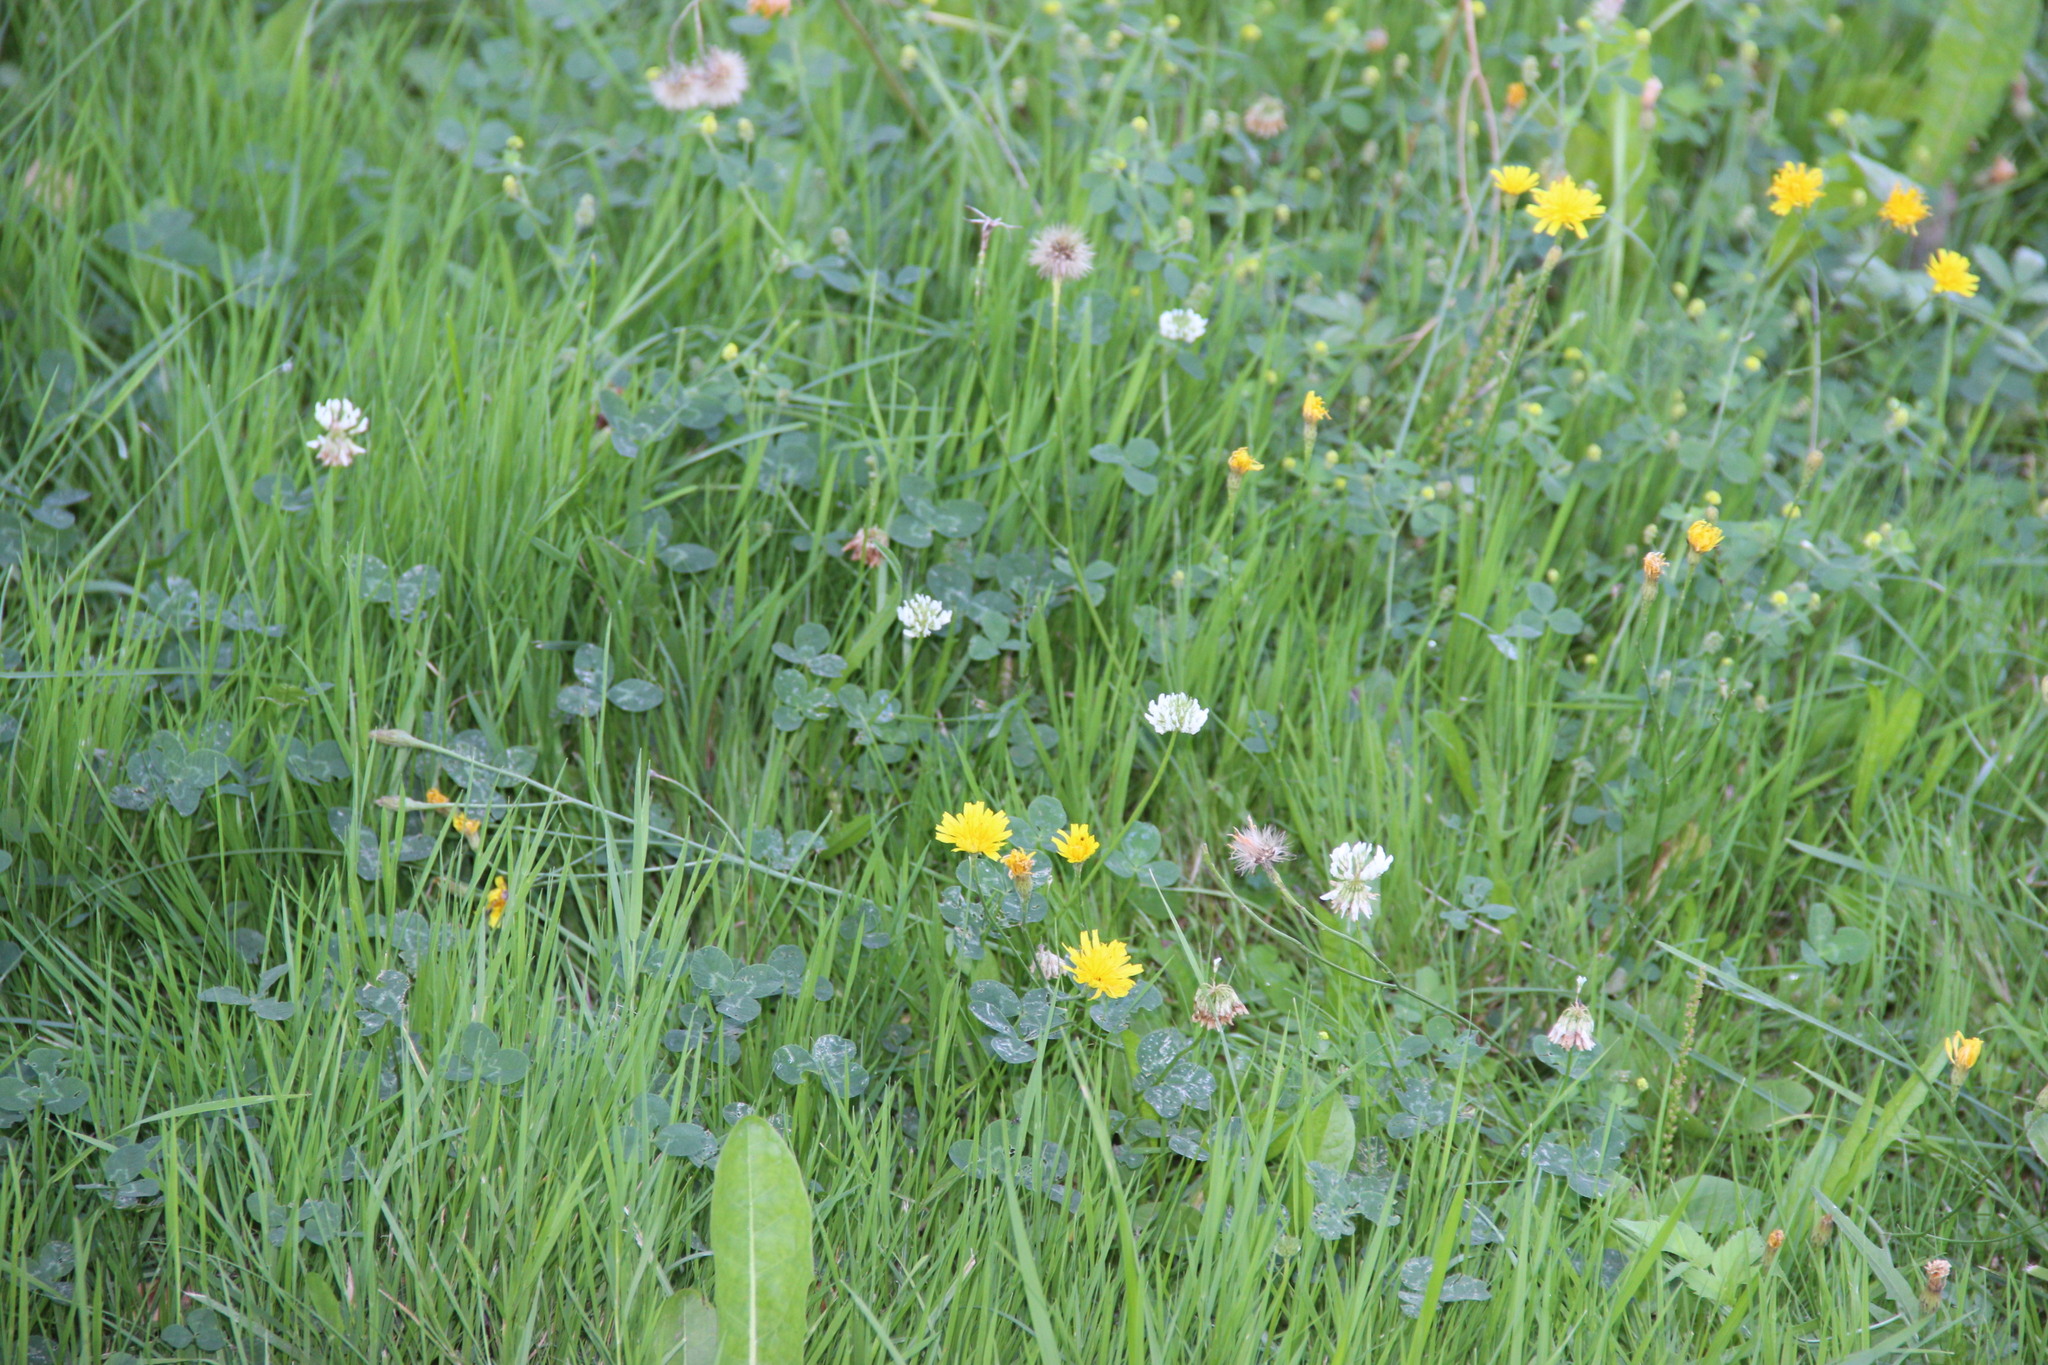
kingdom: Plantae
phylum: Tracheophyta
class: Magnoliopsida
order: Fabales
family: Fabaceae
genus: Trifolium
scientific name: Trifolium repens
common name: White clover
